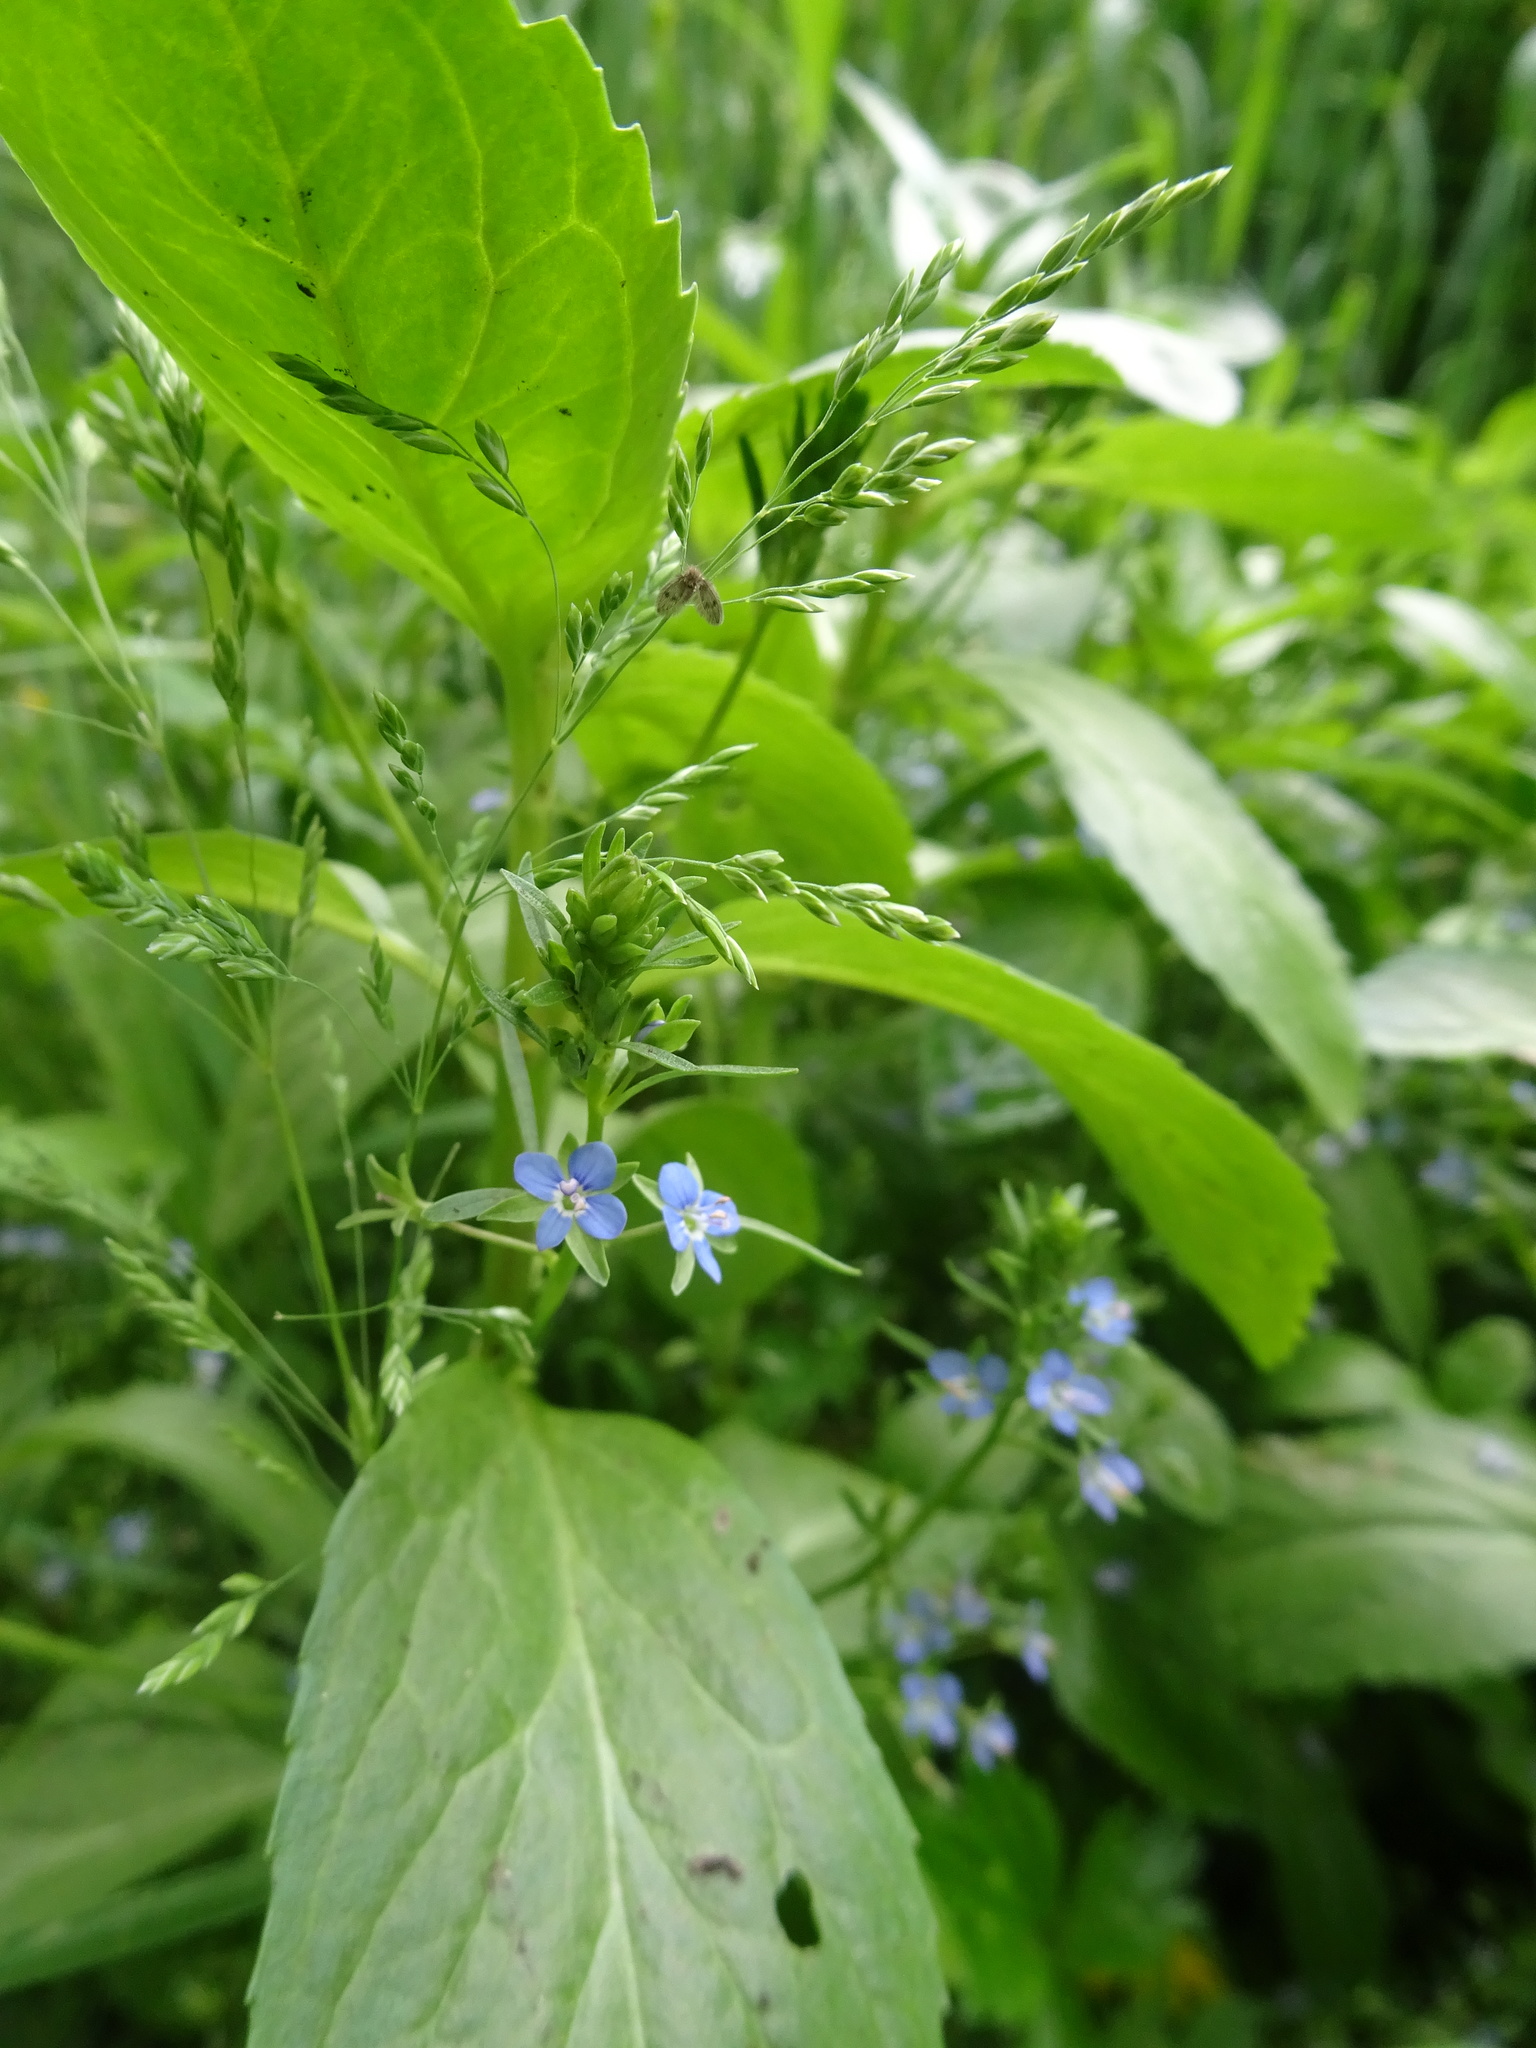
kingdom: Plantae
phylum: Tracheophyta
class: Magnoliopsida
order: Lamiales
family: Plantaginaceae
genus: Veronica
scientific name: Veronica beccabunga
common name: Brooklime
